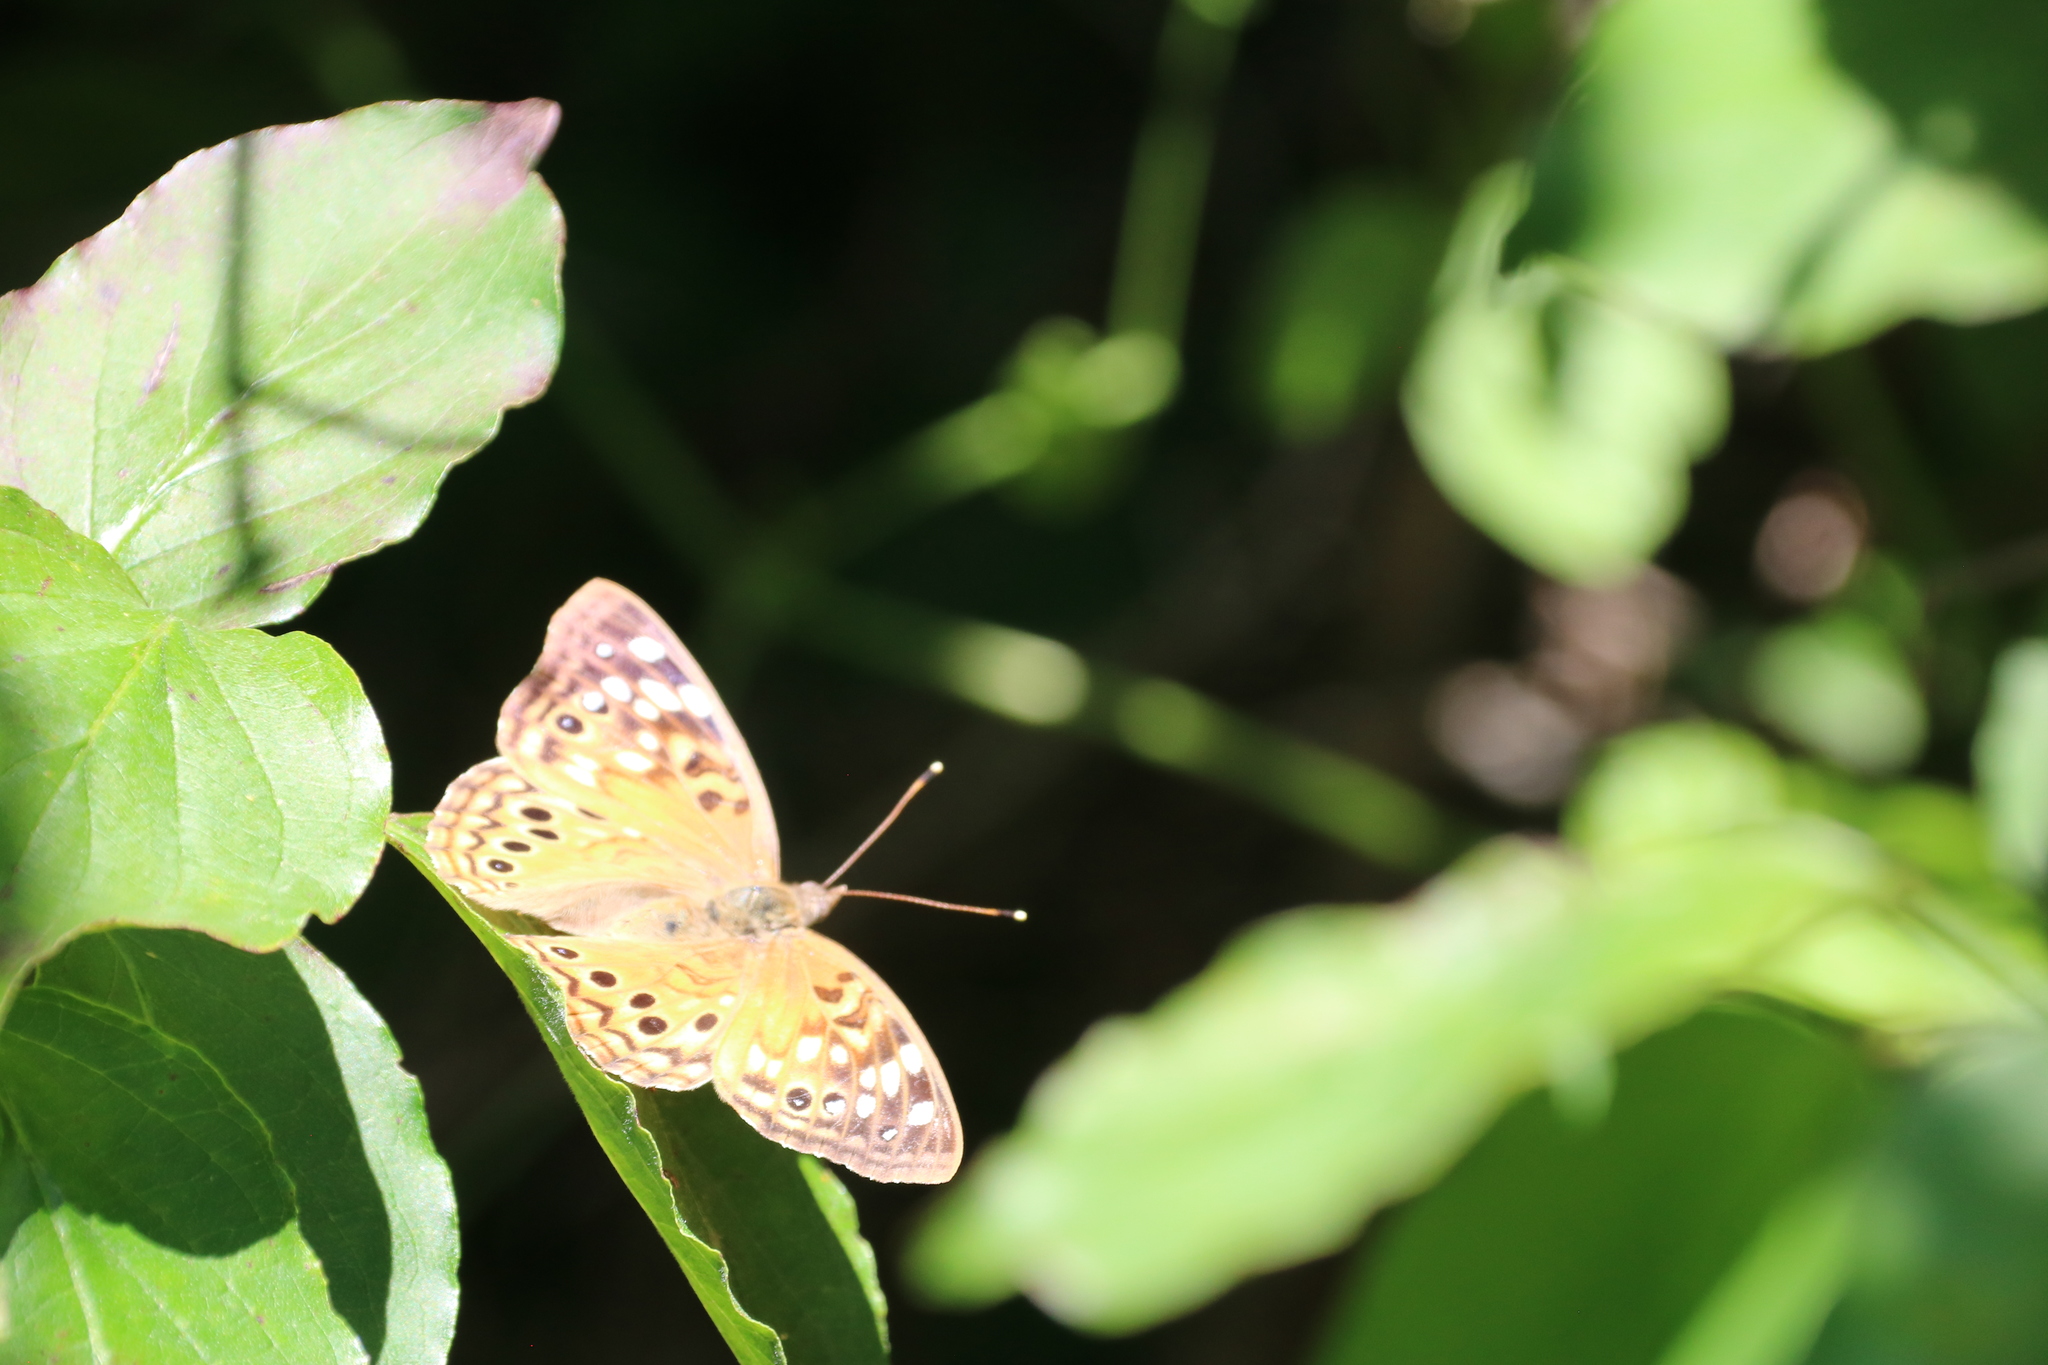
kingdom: Animalia
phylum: Arthropoda
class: Insecta
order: Lepidoptera
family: Nymphalidae
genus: Asterocampa
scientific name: Asterocampa celtis
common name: Hackberry emperor
